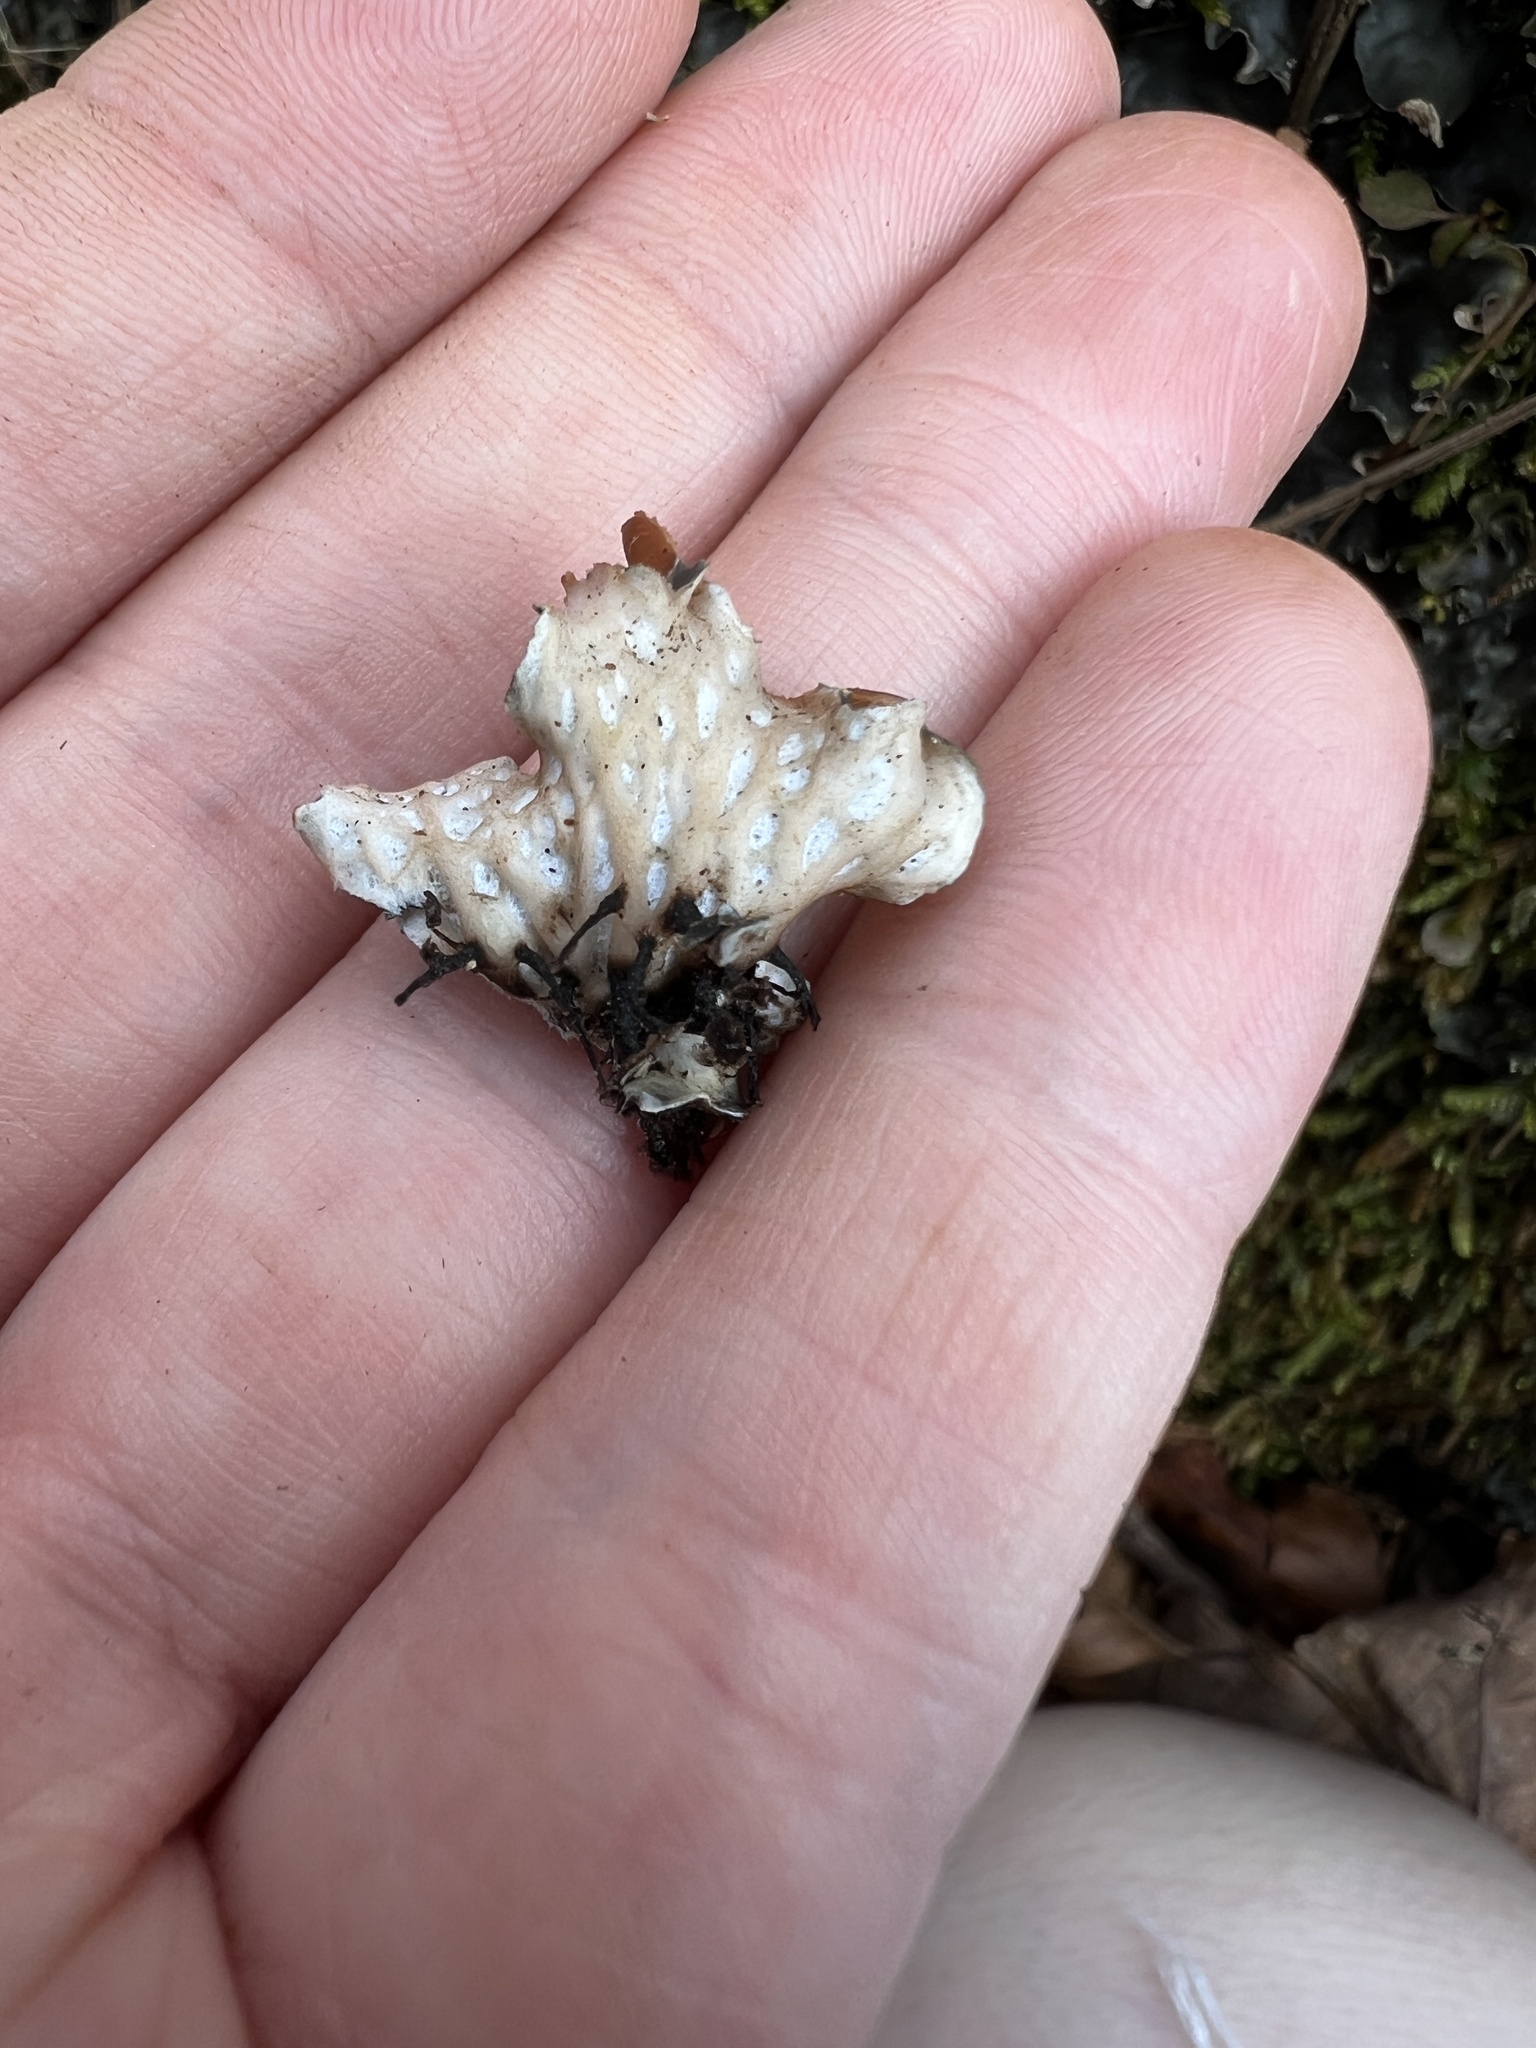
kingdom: Fungi
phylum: Ascomycota
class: Lecanoromycetes
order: Peltigerales
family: Peltigeraceae
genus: Peltigera
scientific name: Peltigera polydactylon
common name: Many-fruited pelt lichen
